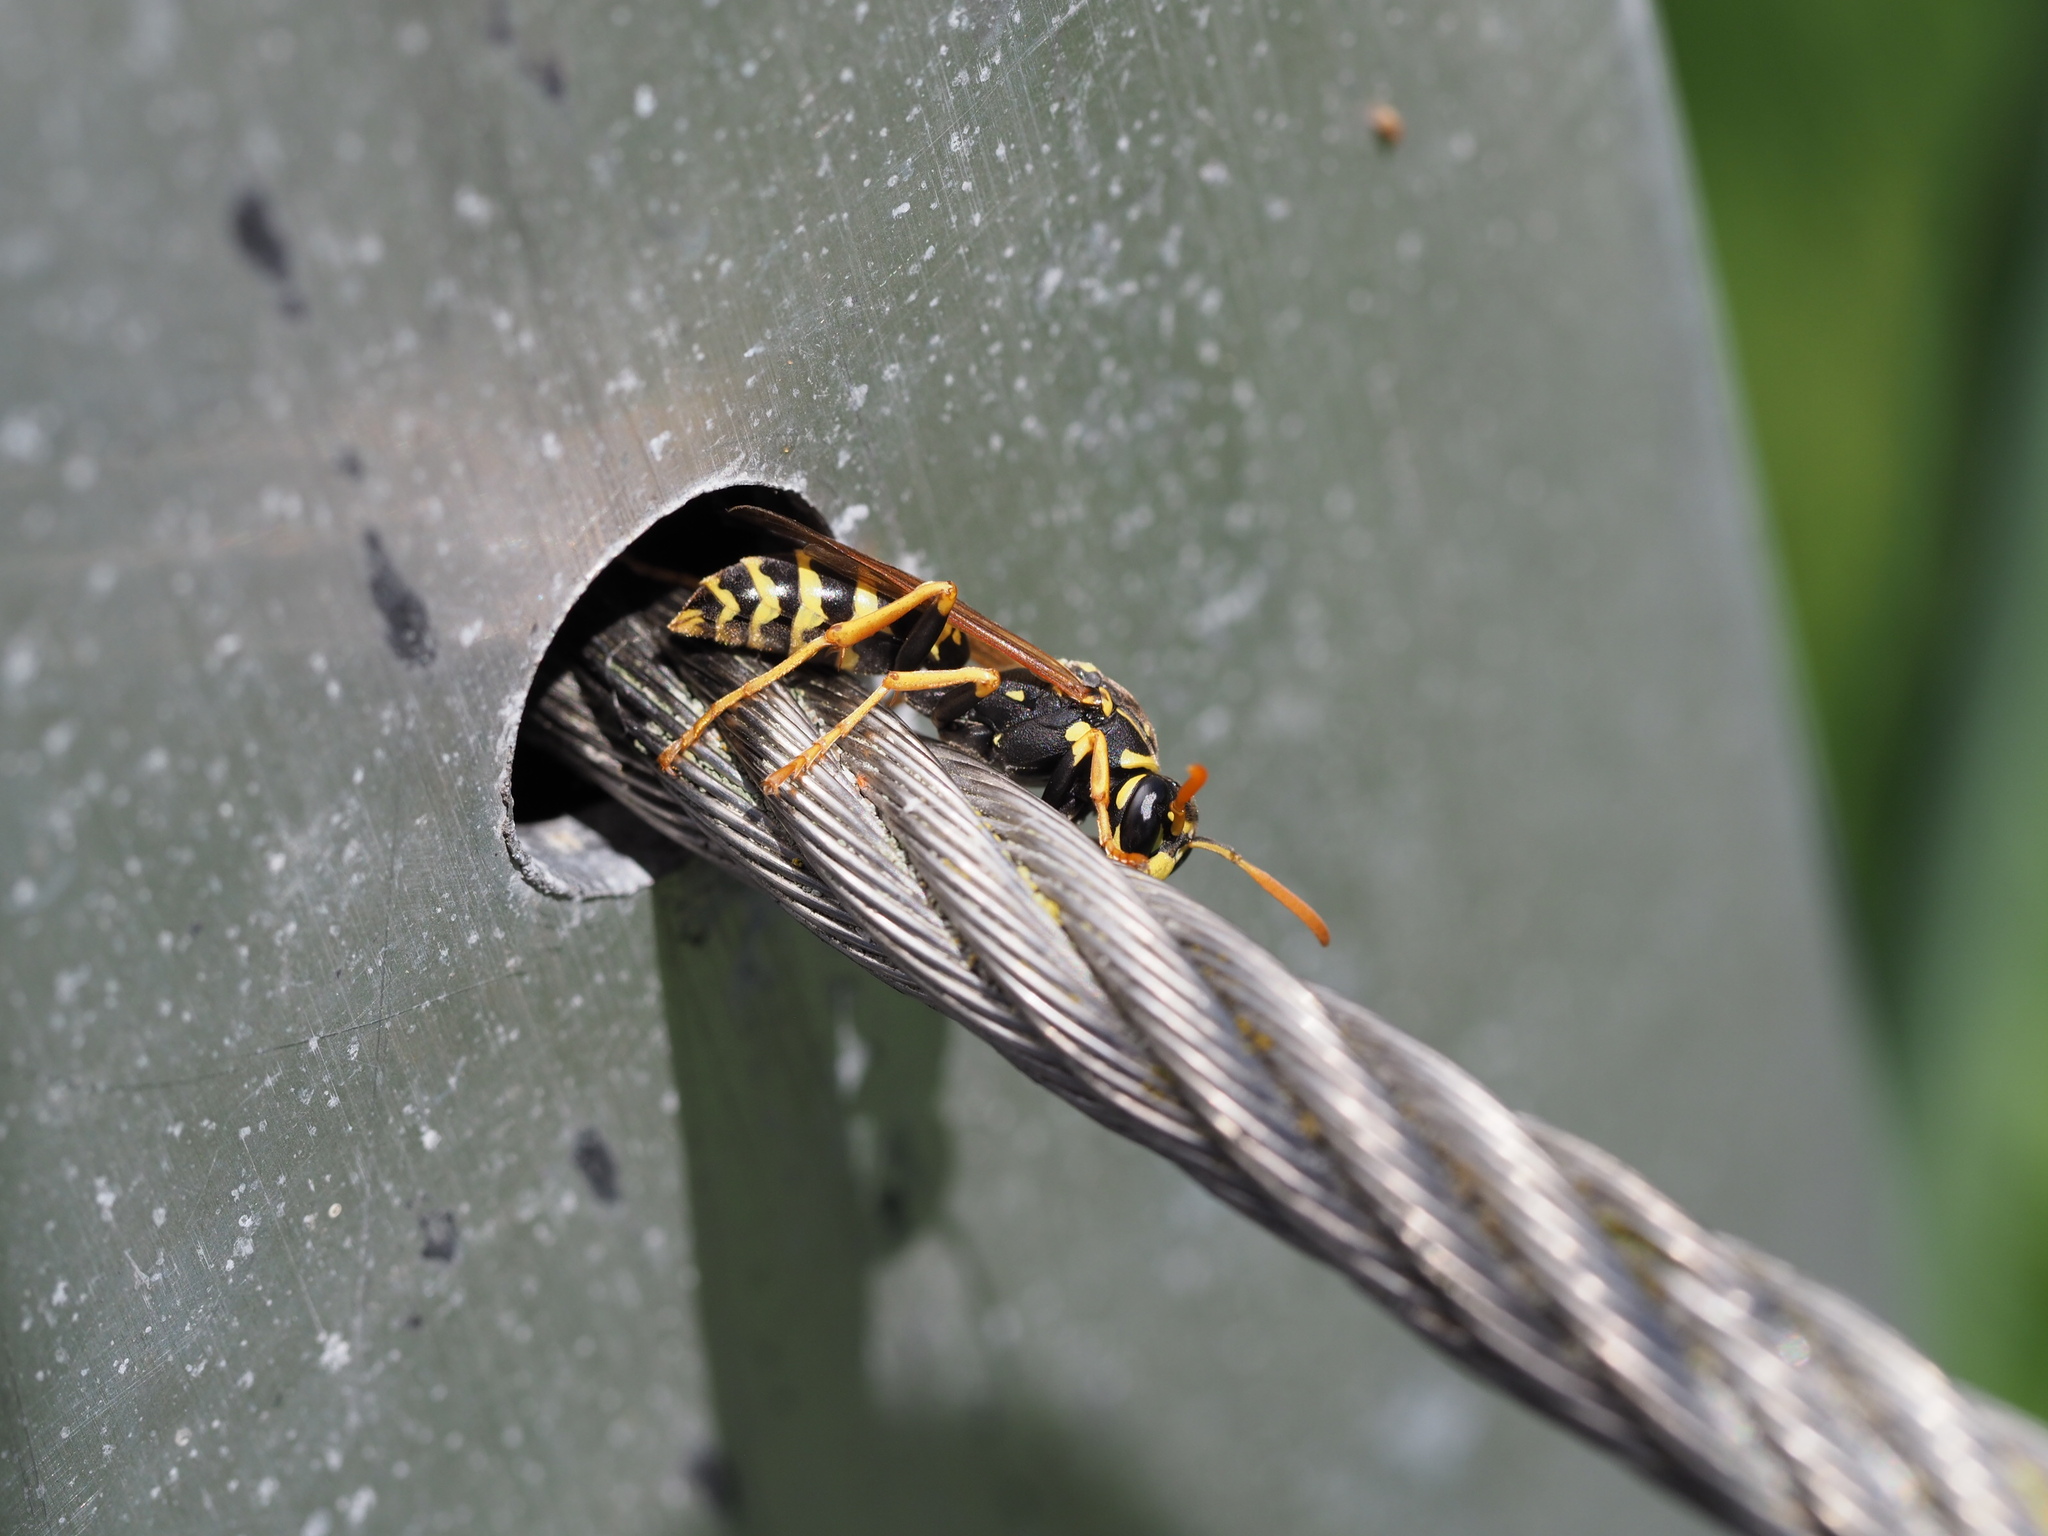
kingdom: Animalia
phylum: Arthropoda
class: Insecta
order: Hymenoptera
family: Eumenidae
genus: Polistes
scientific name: Polistes dominula
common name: Paper wasp
